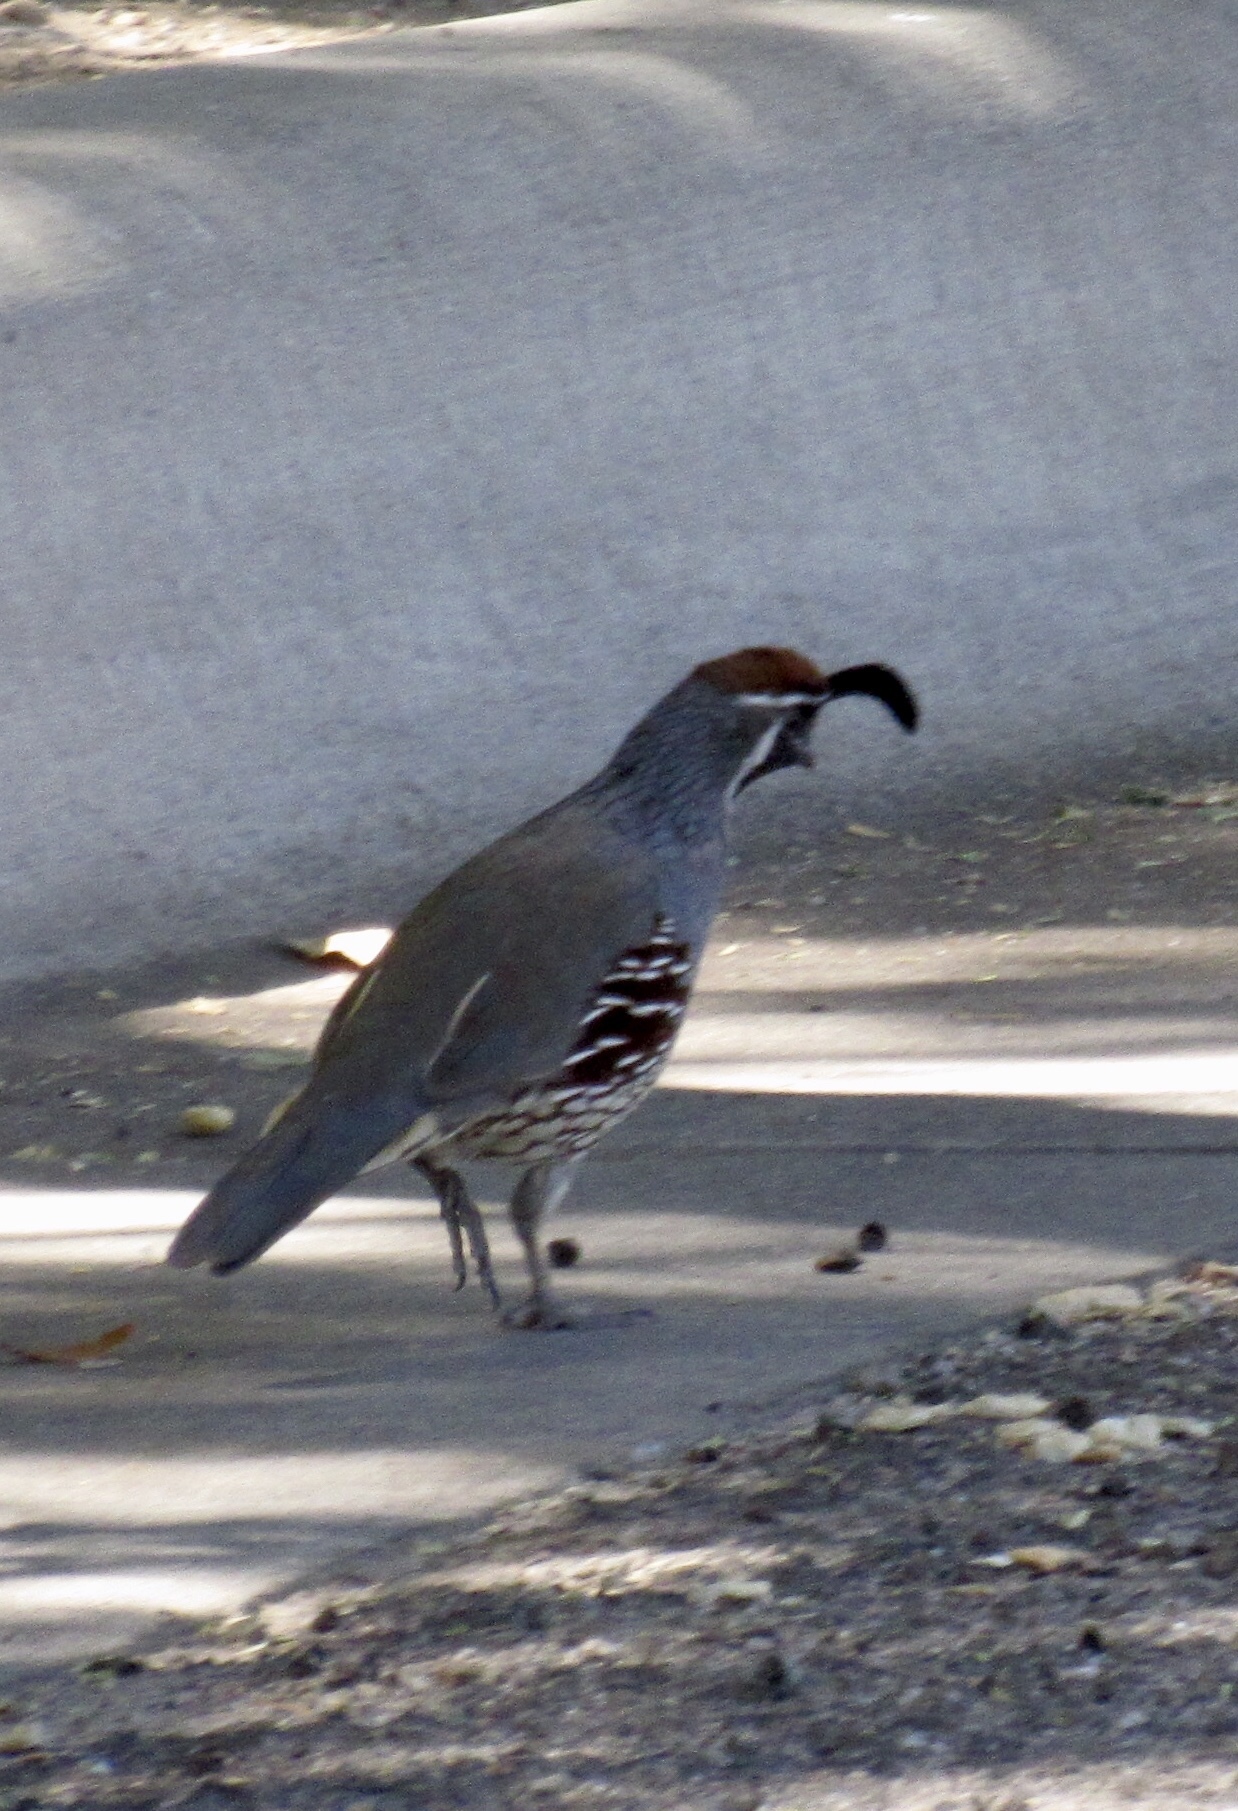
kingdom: Animalia
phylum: Chordata
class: Aves
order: Galliformes
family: Odontophoridae
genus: Callipepla
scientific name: Callipepla gambelii
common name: Gambel's quail
